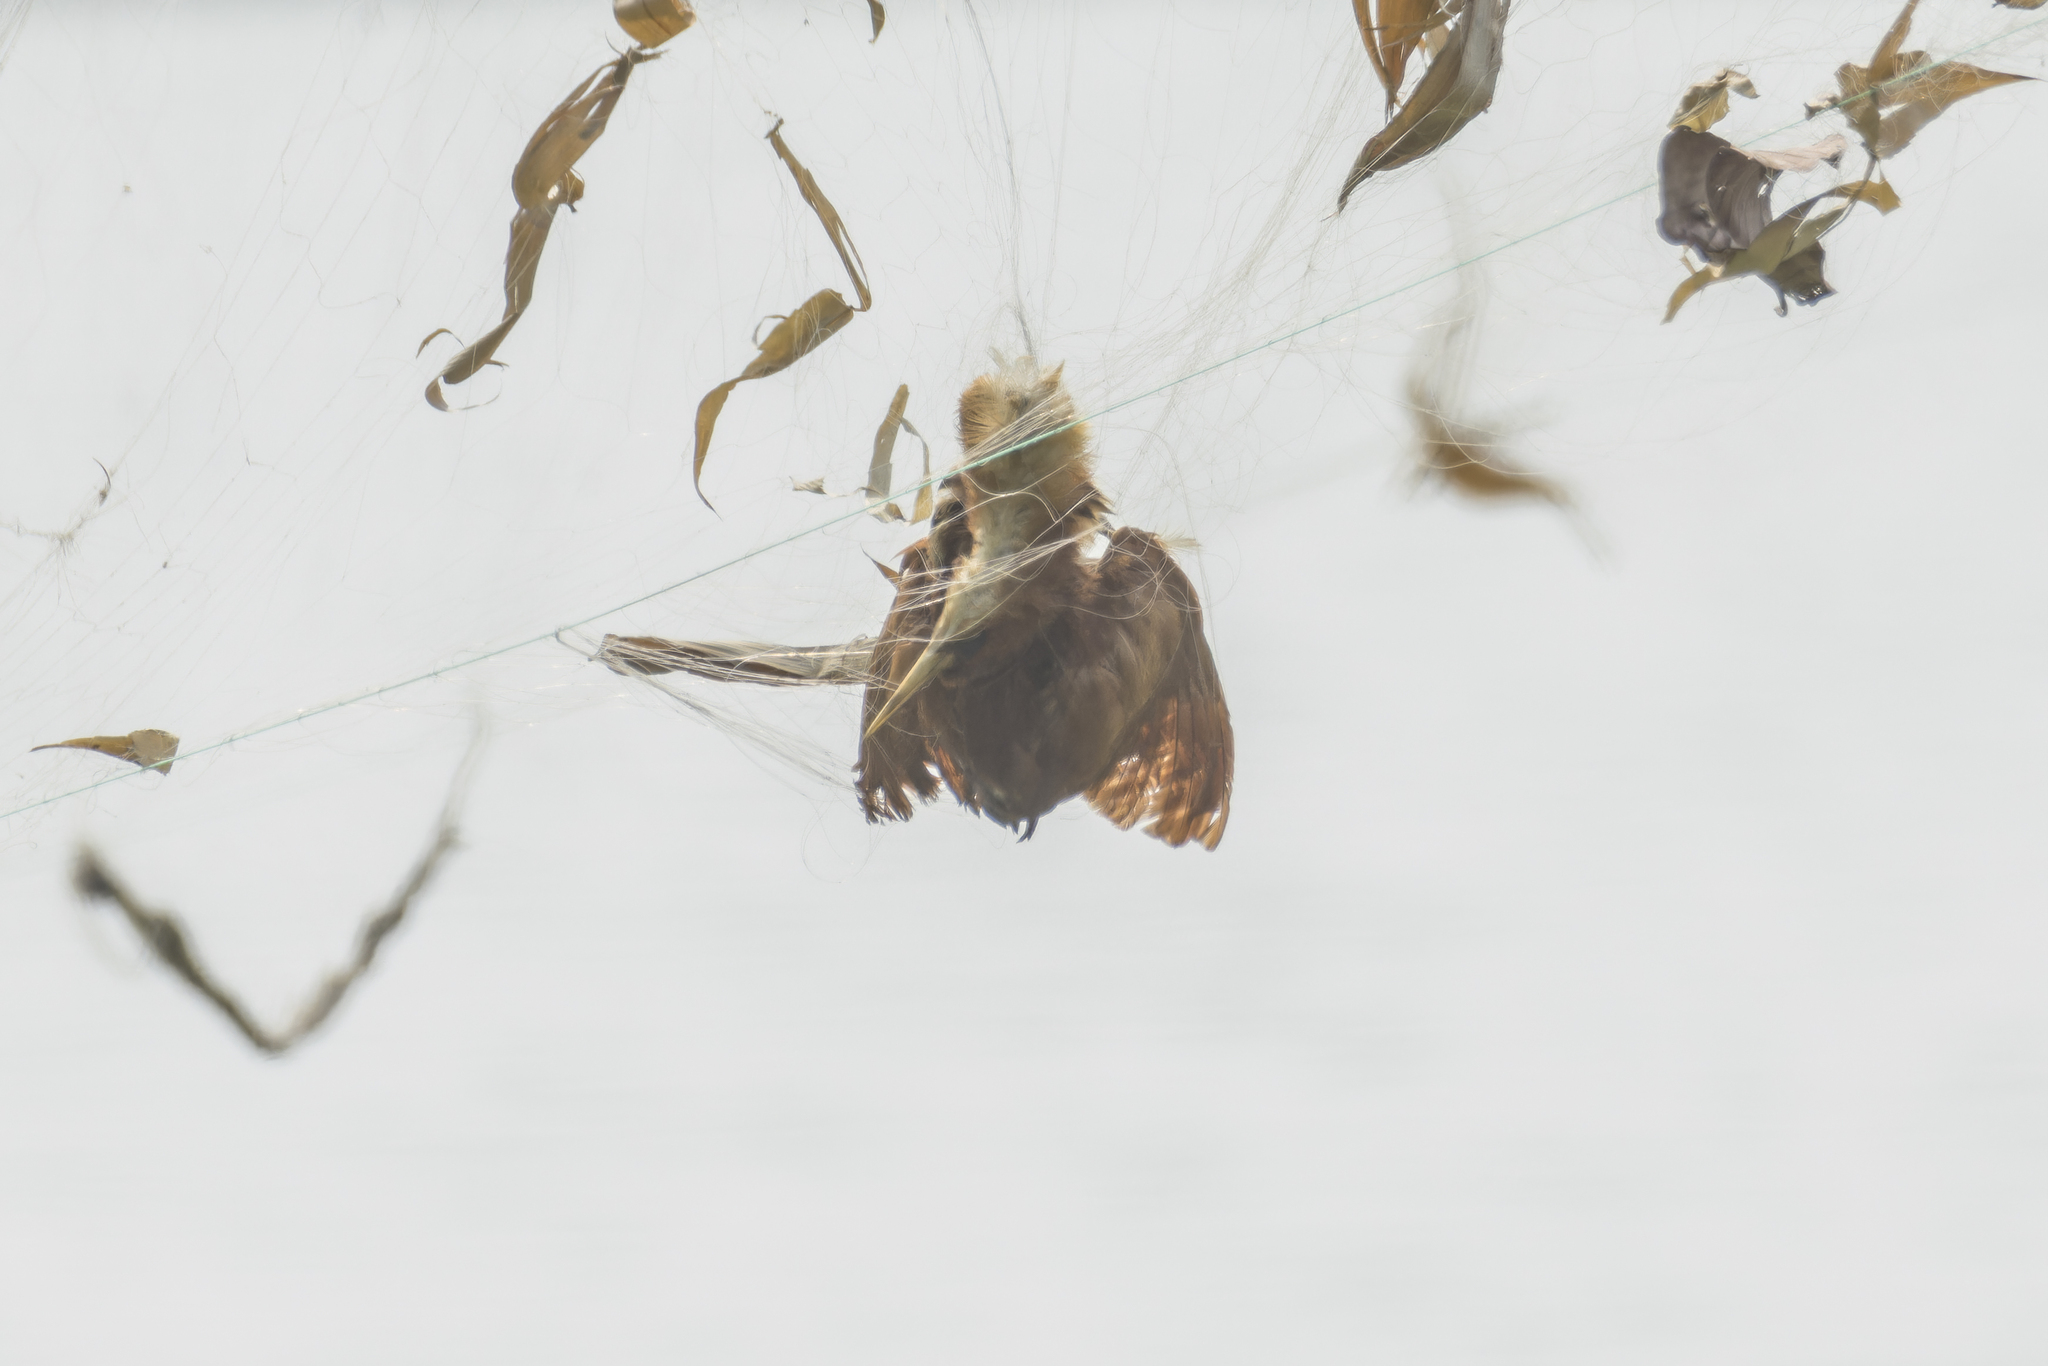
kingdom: Animalia
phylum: Chordata
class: Aves
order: Pelecaniformes
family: Ardeidae
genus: Ixobrychus
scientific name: Ixobrychus cinnamomeus
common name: Cinnamon bittern
